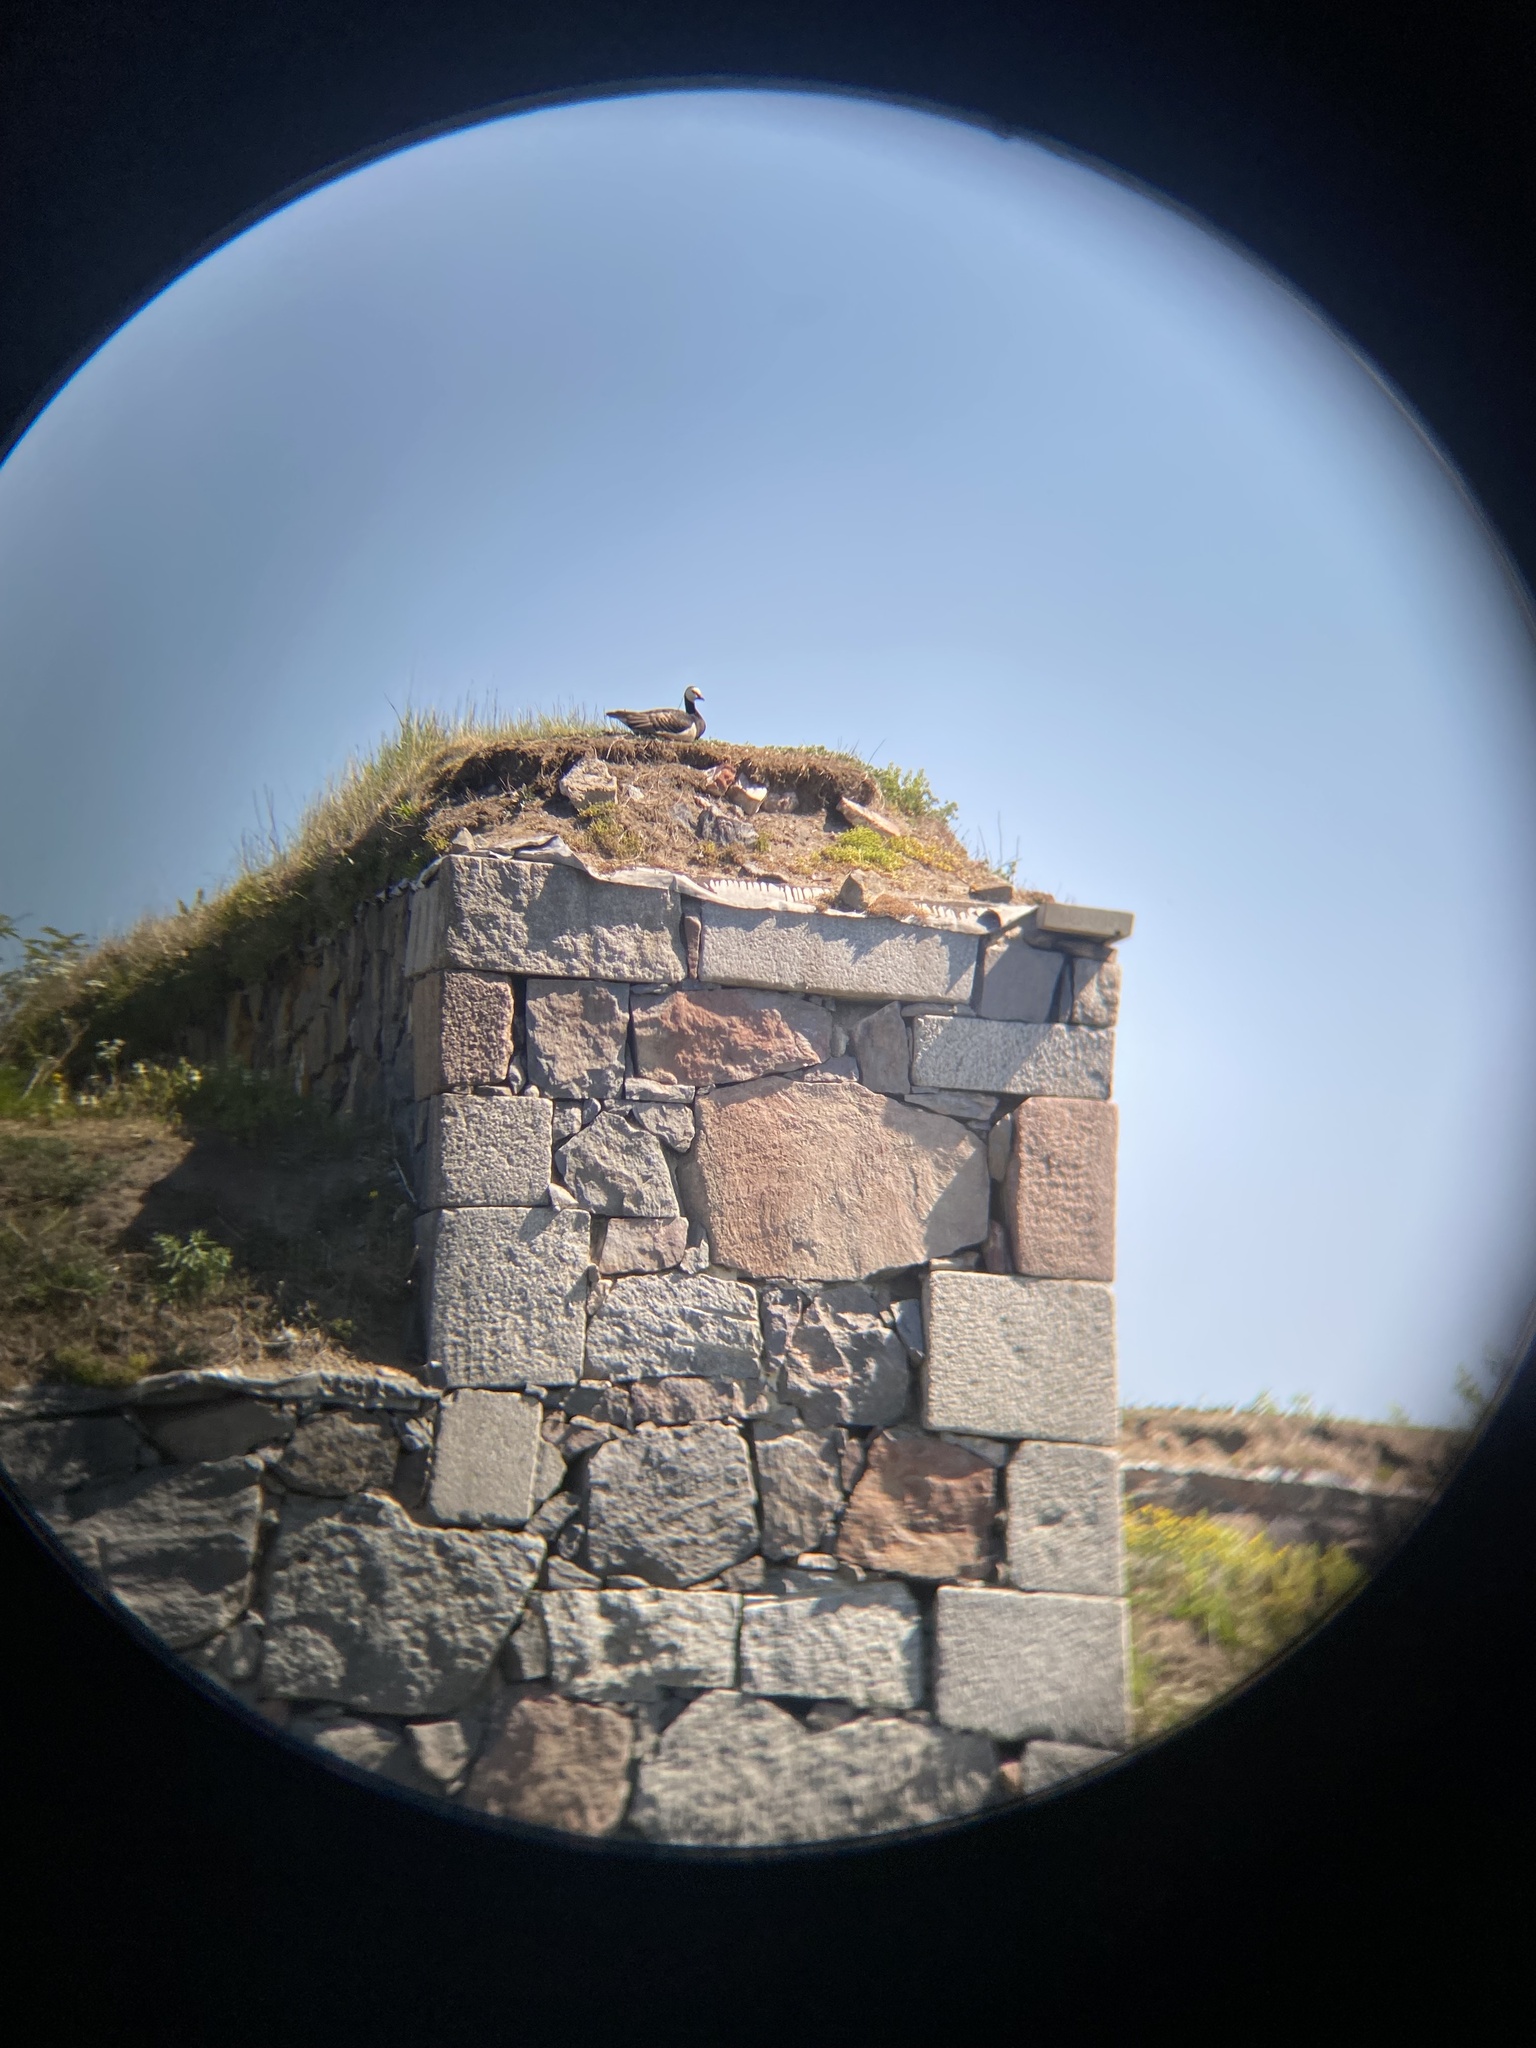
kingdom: Animalia
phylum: Chordata
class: Aves
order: Anseriformes
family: Anatidae
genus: Branta
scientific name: Branta leucopsis
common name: Barnacle goose
